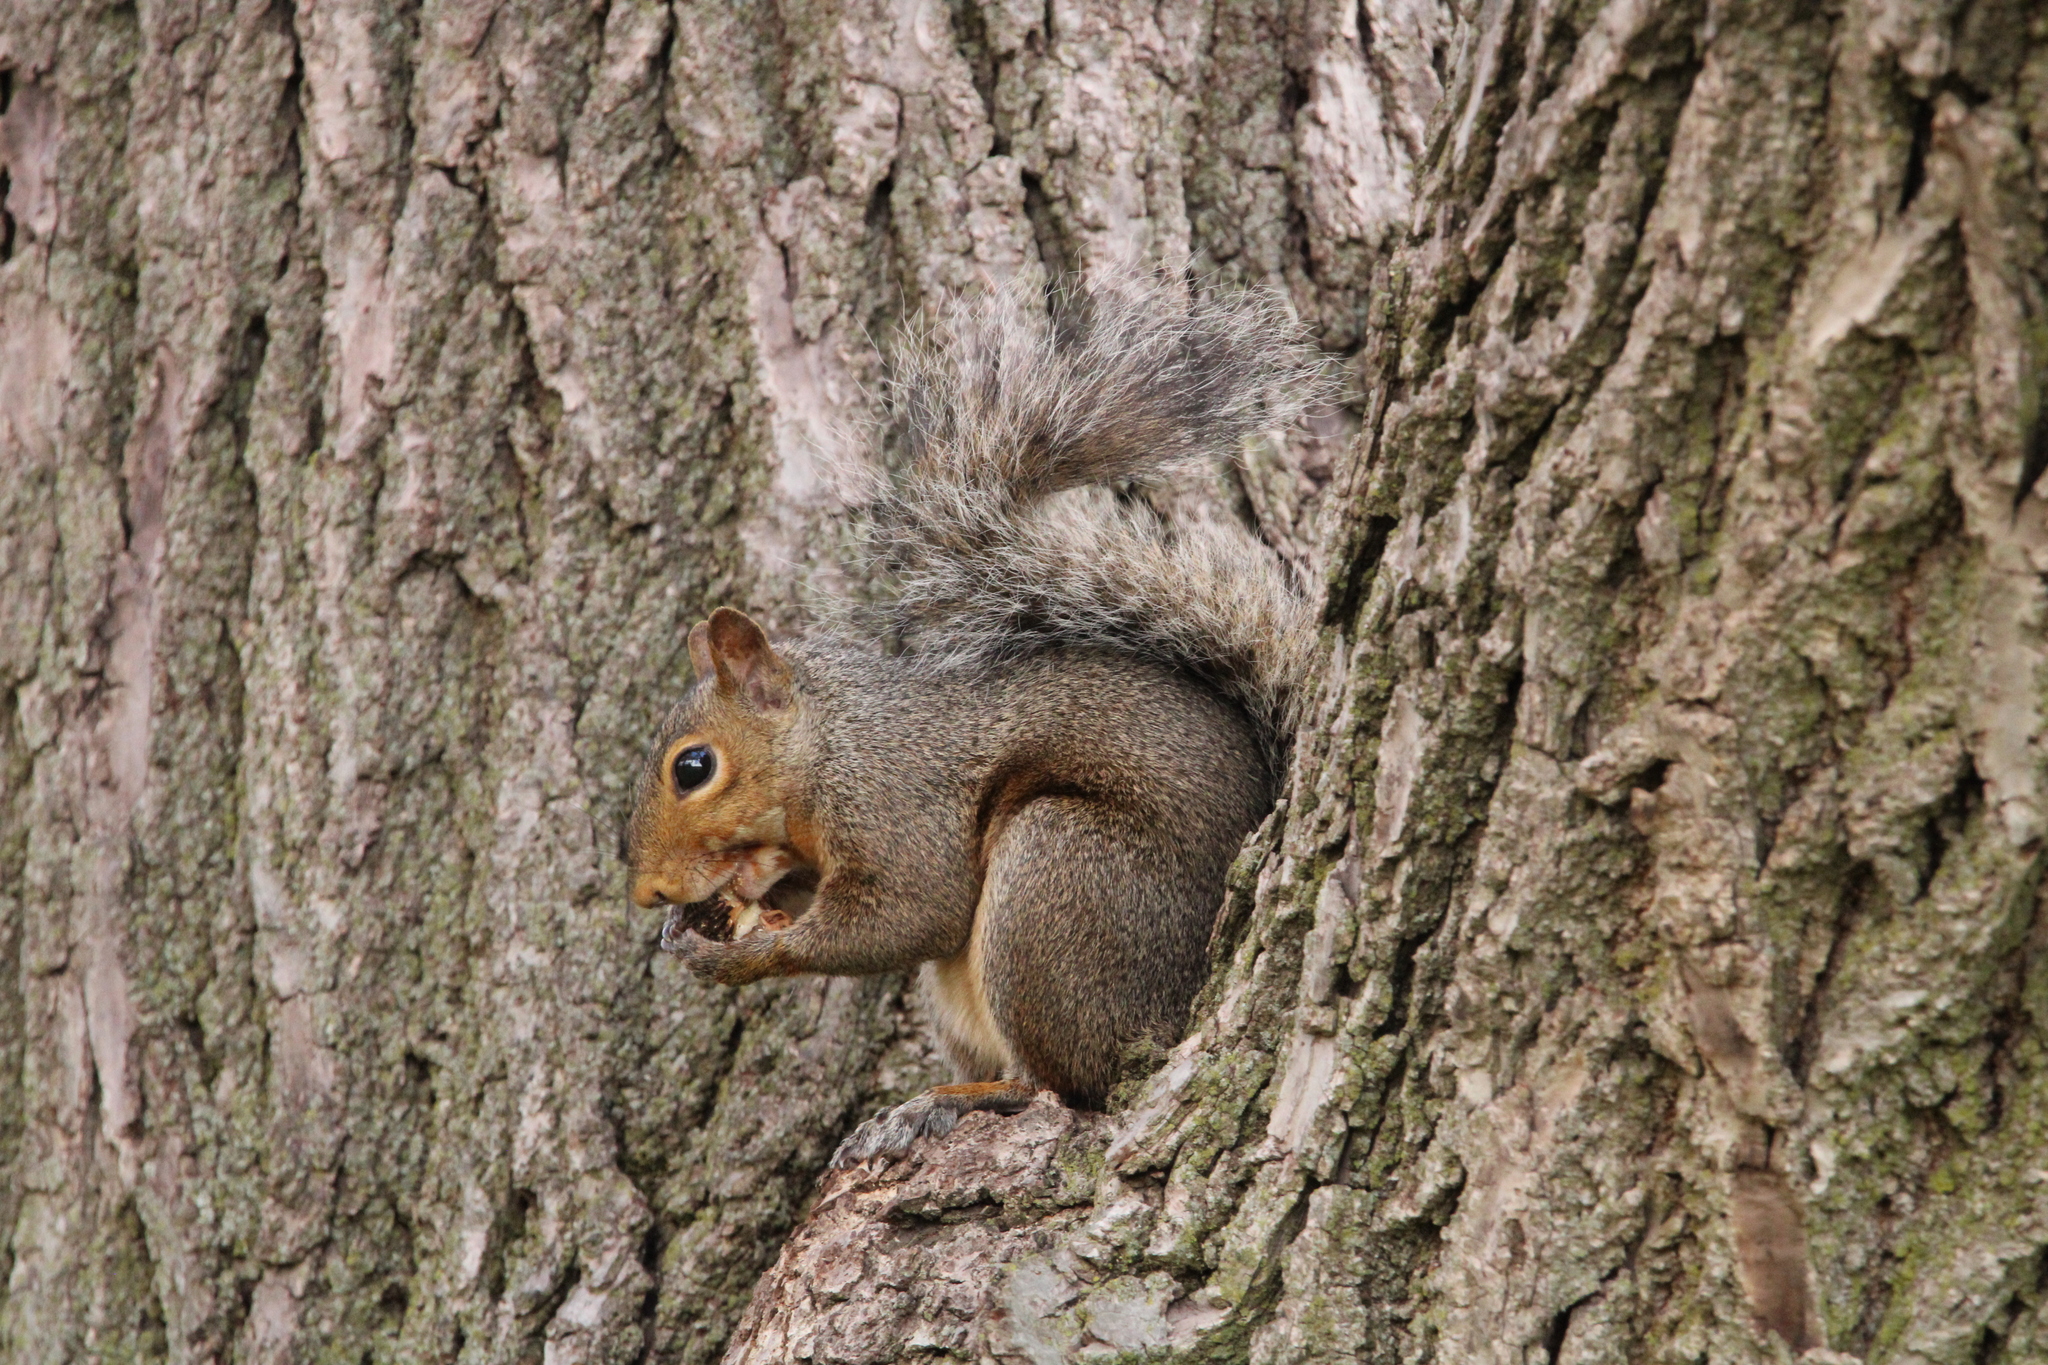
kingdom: Animalia
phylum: Chordata
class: Mammalia
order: Rodentia
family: Sciuridae
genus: Sciurus
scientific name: Sciurus carolinensis
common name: Eastern gray squirrel
